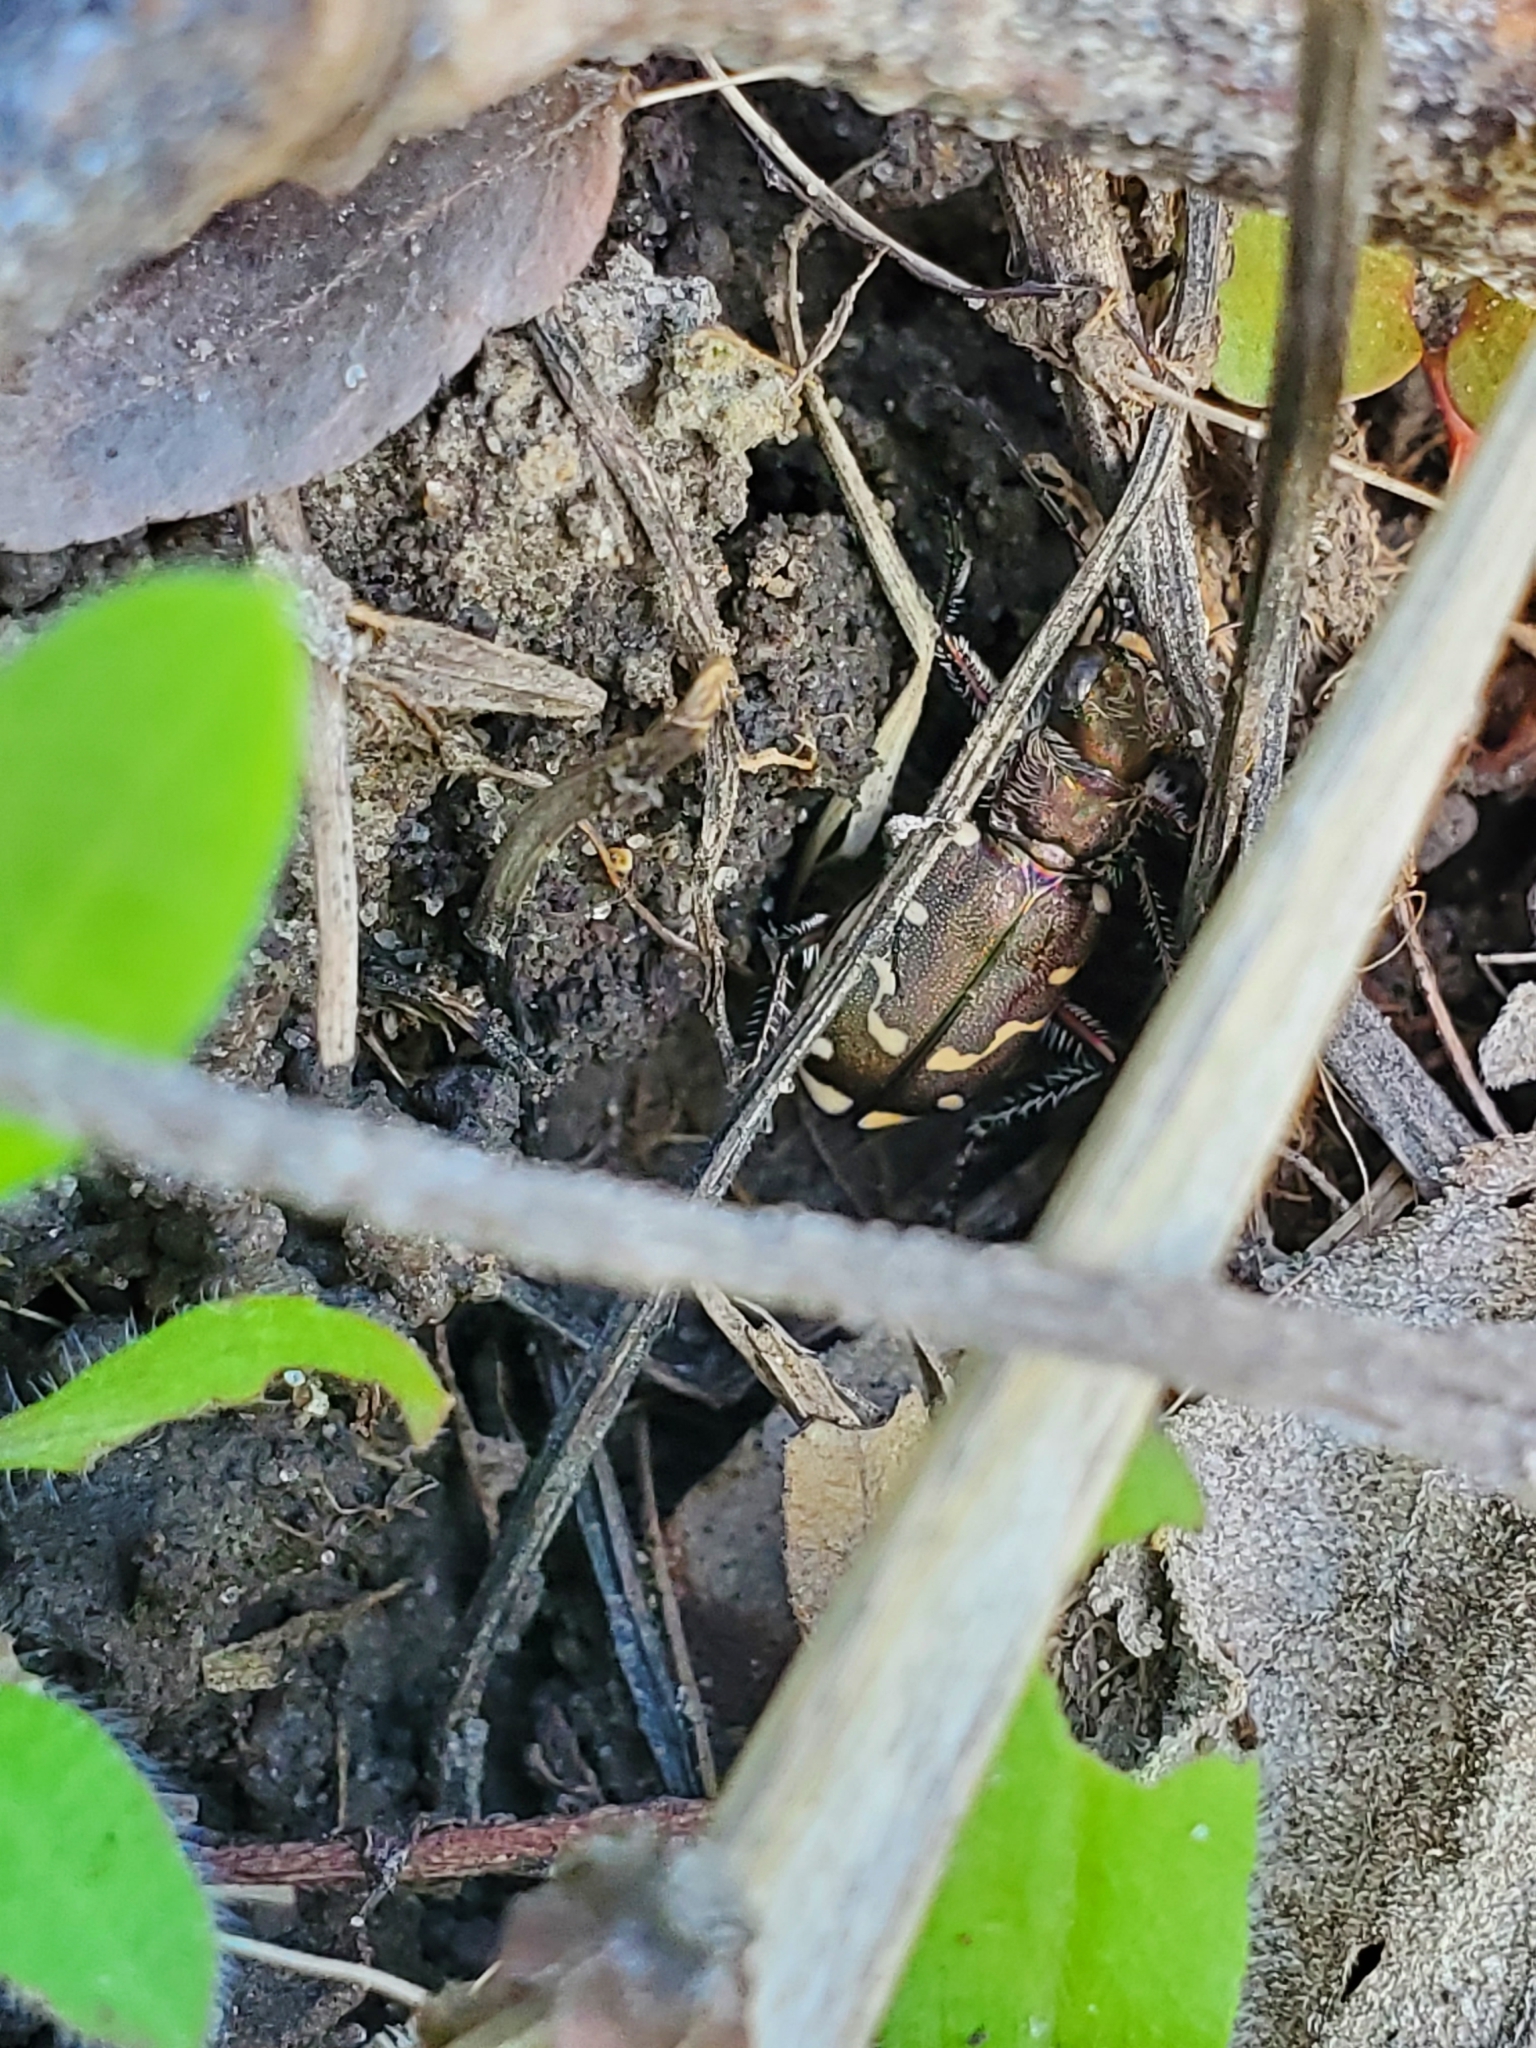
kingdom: Animalia
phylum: Arthropoda
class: Insecta
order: Coleoptera
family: Carabidae
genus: Cicindela
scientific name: Cicindela repanda
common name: Bronzed tiger beetle
